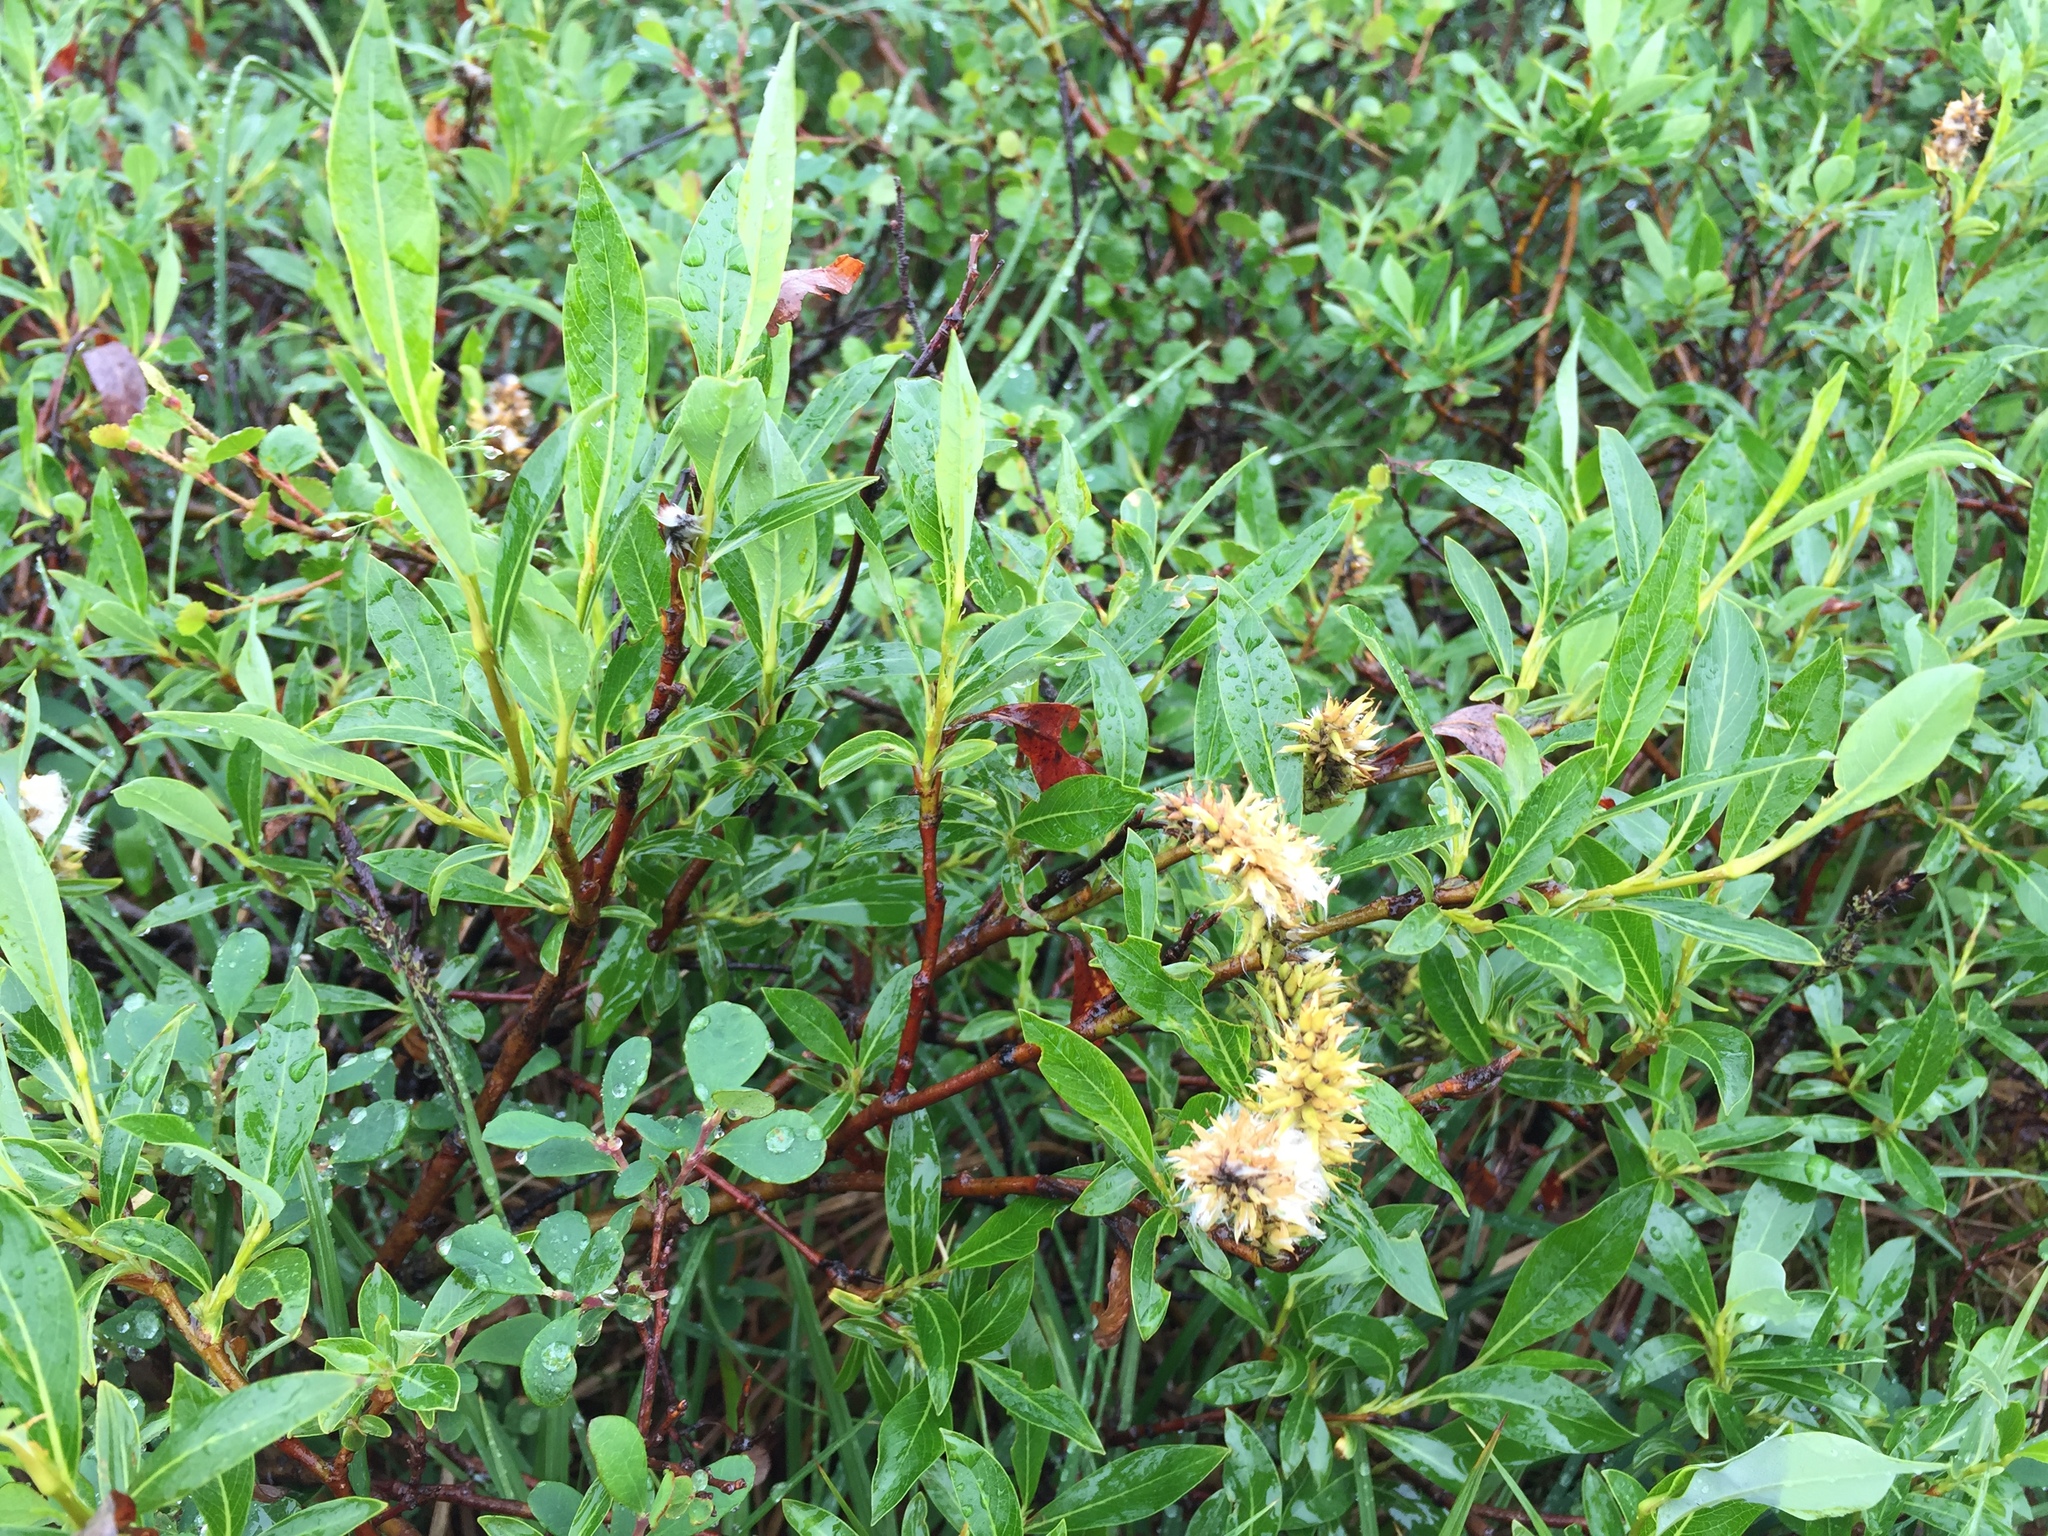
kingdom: Plantae
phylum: Tracheophyta
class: Magnoliopsida
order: Malpighiales
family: Salicaceae
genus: Salix
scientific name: Salix pulchra
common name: Diamond-leaved willow
